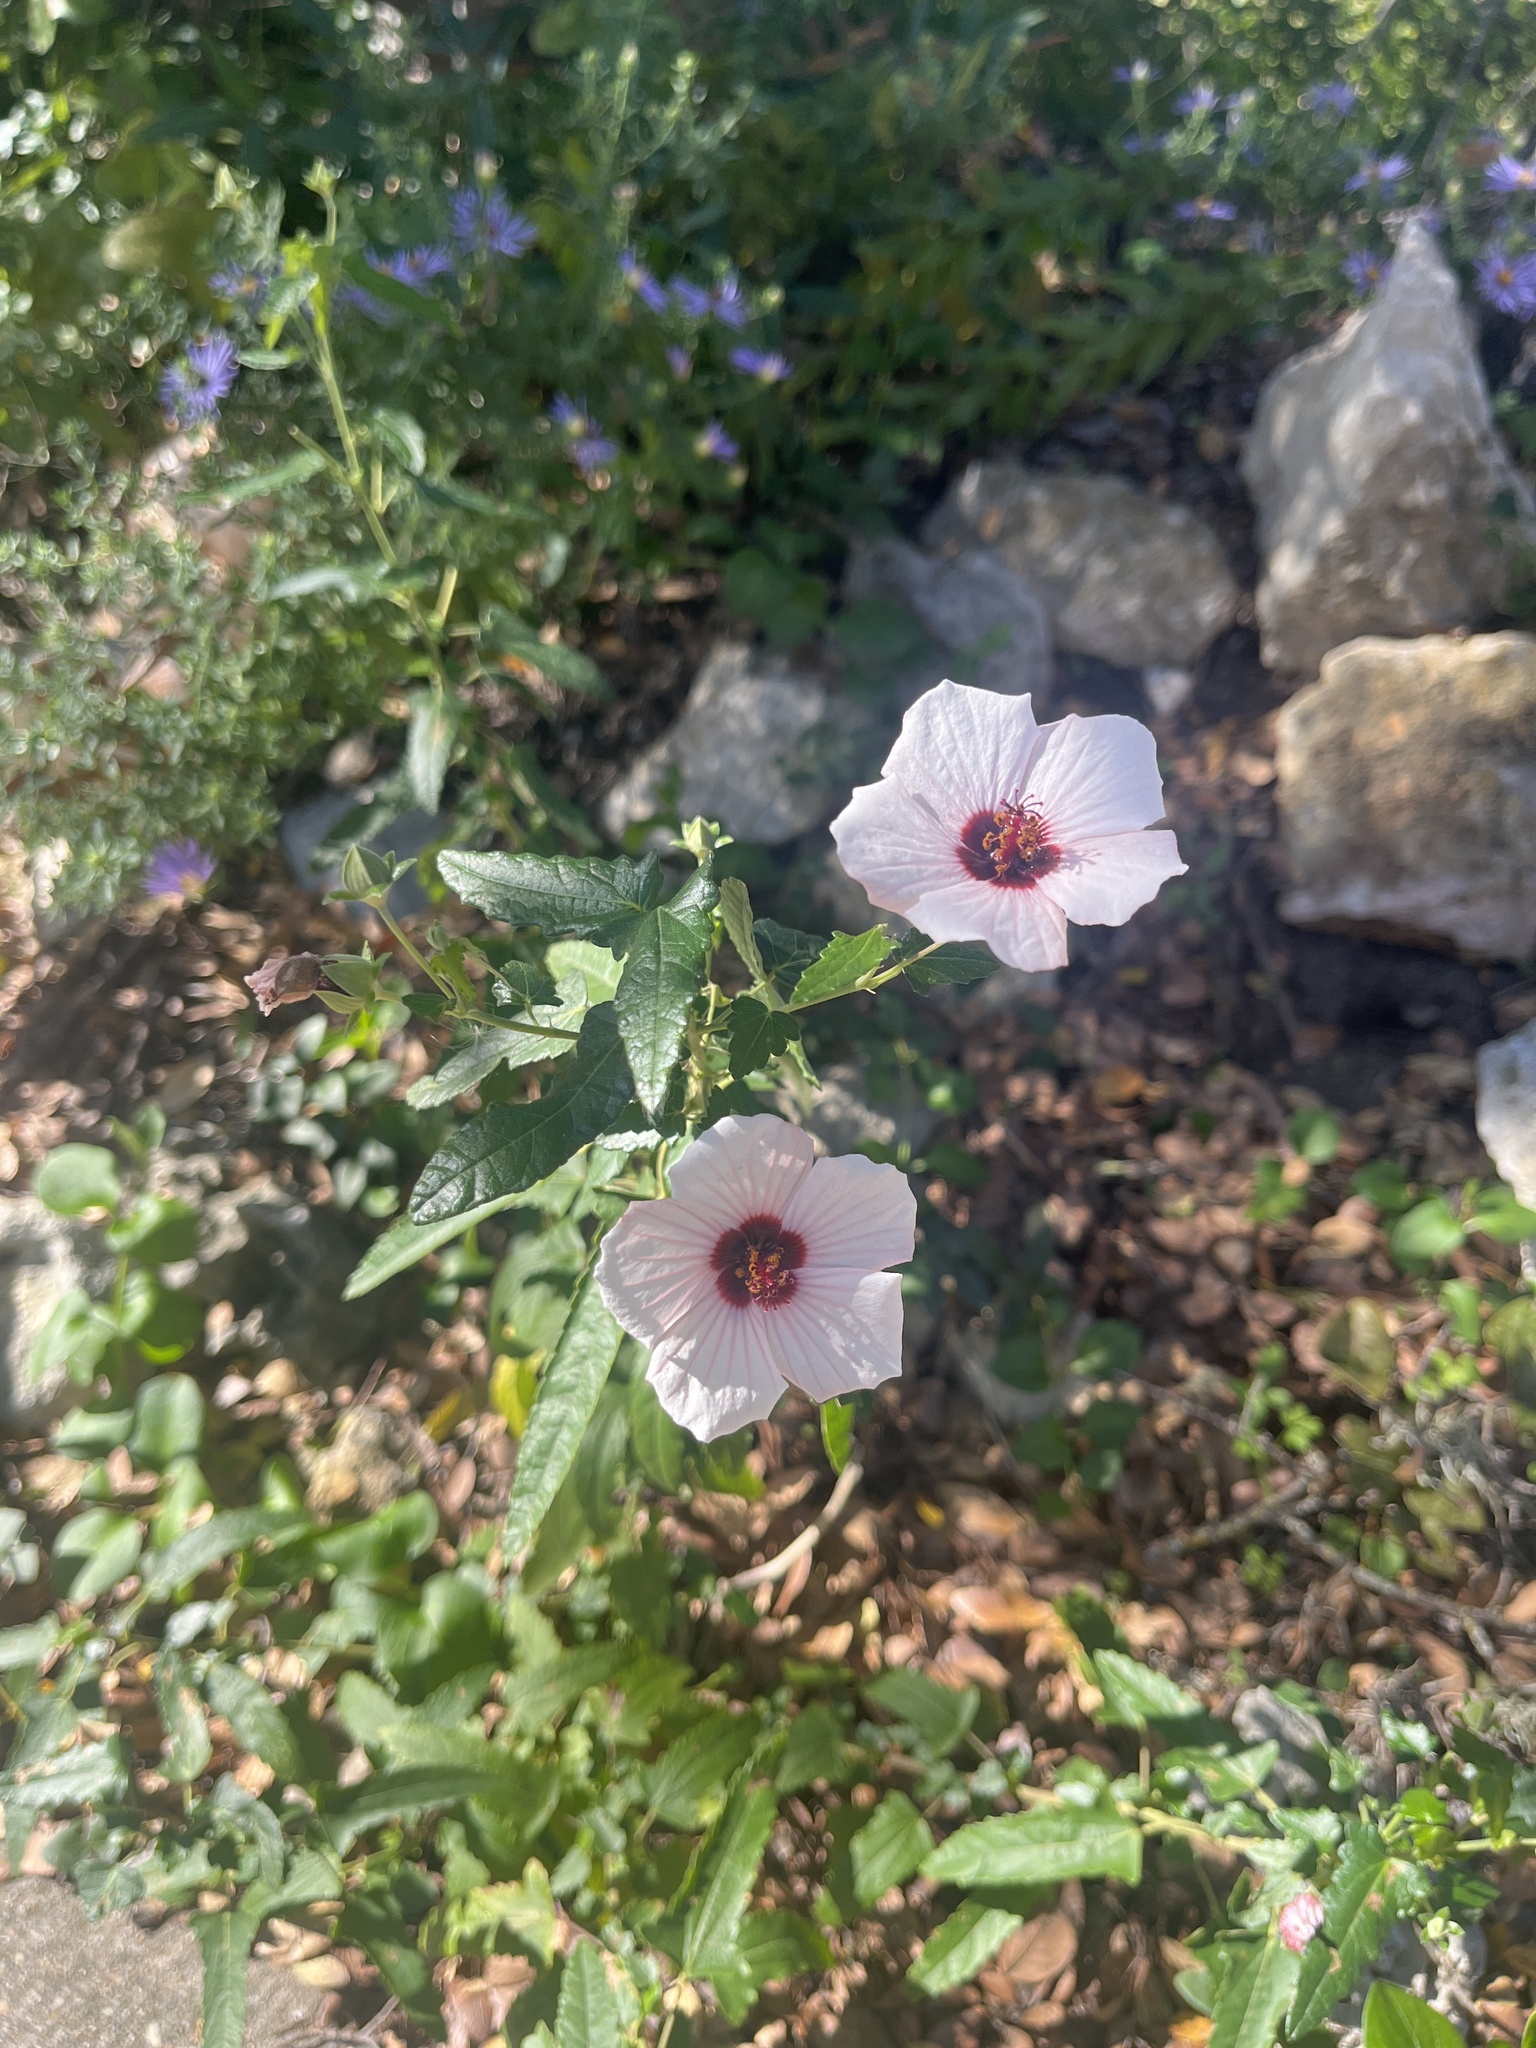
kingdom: Plantae
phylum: Tracheophyta
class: Magnoliopsida
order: Malvales
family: Malvaceae
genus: Pavonia
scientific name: Pavonia hastata
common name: Spearleaf swampmallow
